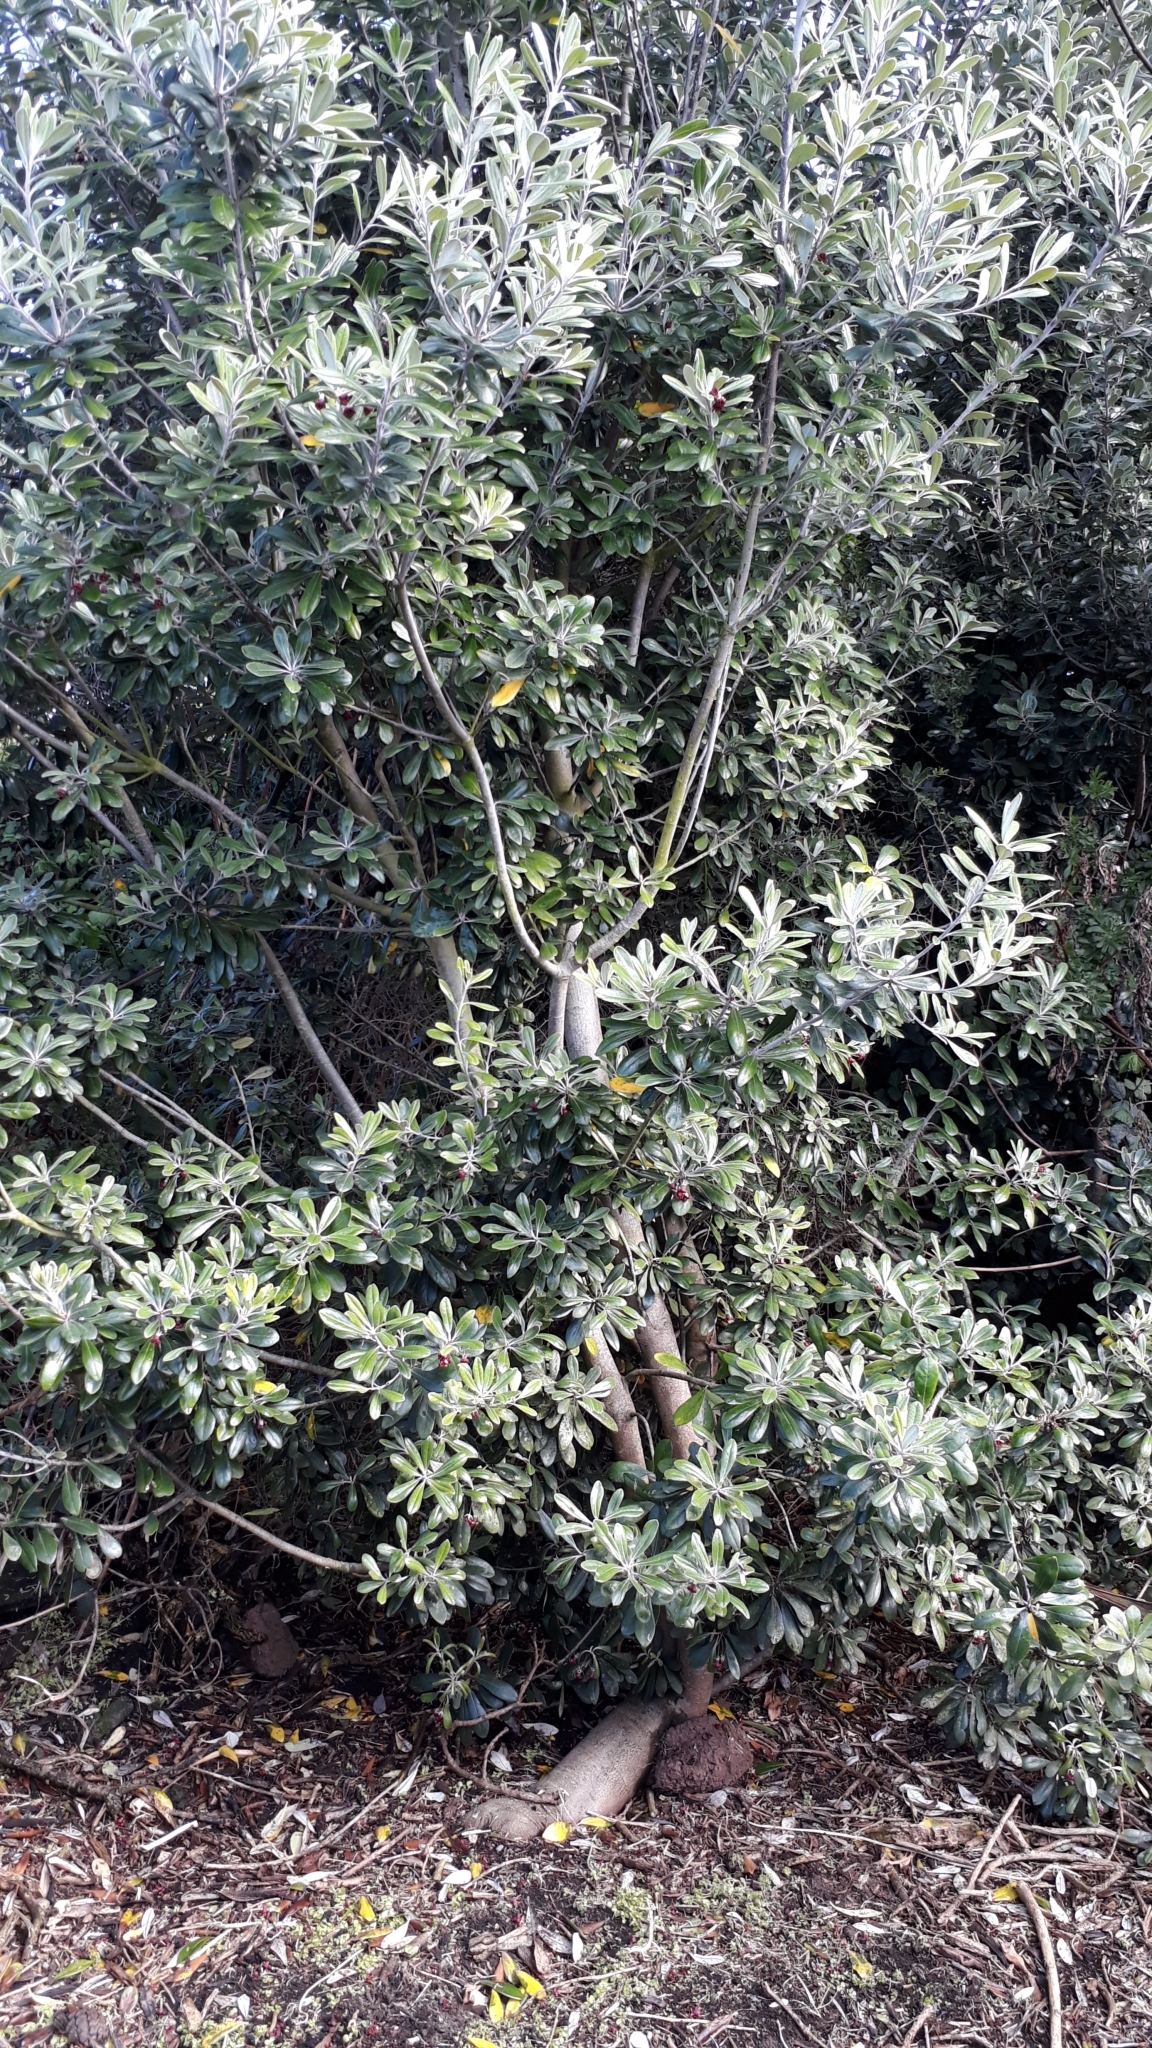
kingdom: Plantae
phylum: Tracheophyta
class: Magnoliopsida
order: Apiales
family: Pittosporaceae
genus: Pittosporum
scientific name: Pittosporum crassifolium
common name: Karo
